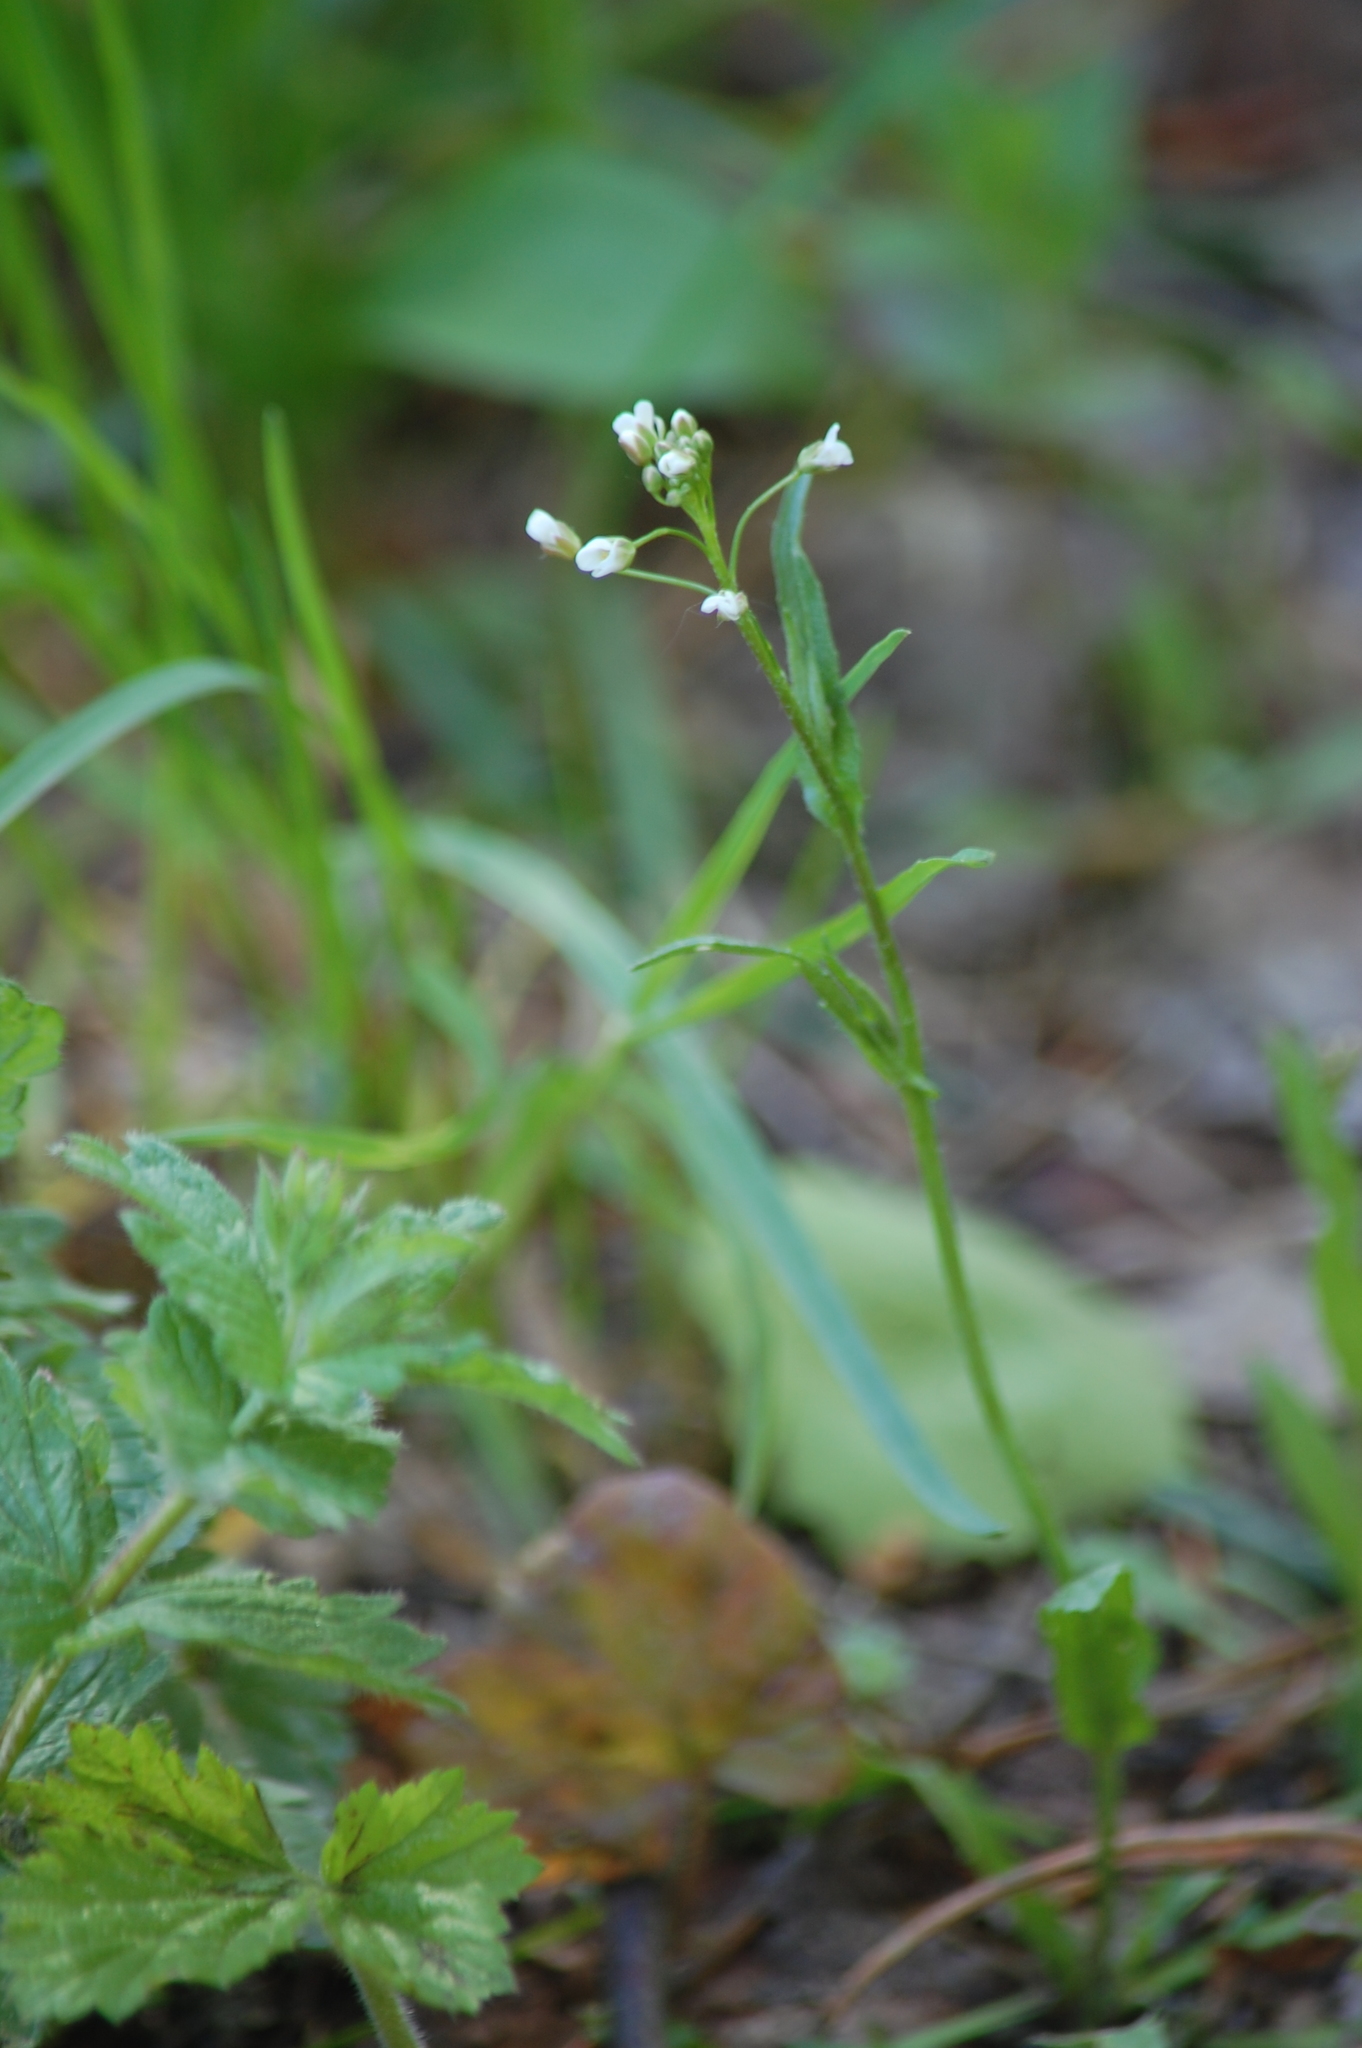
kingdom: Plantae
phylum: Tracheophyta
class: Magnoliopsida
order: Brassicales
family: Brassicaceae
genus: Capsella
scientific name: Capsella bursa-pastoris
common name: Shepherd's purse
